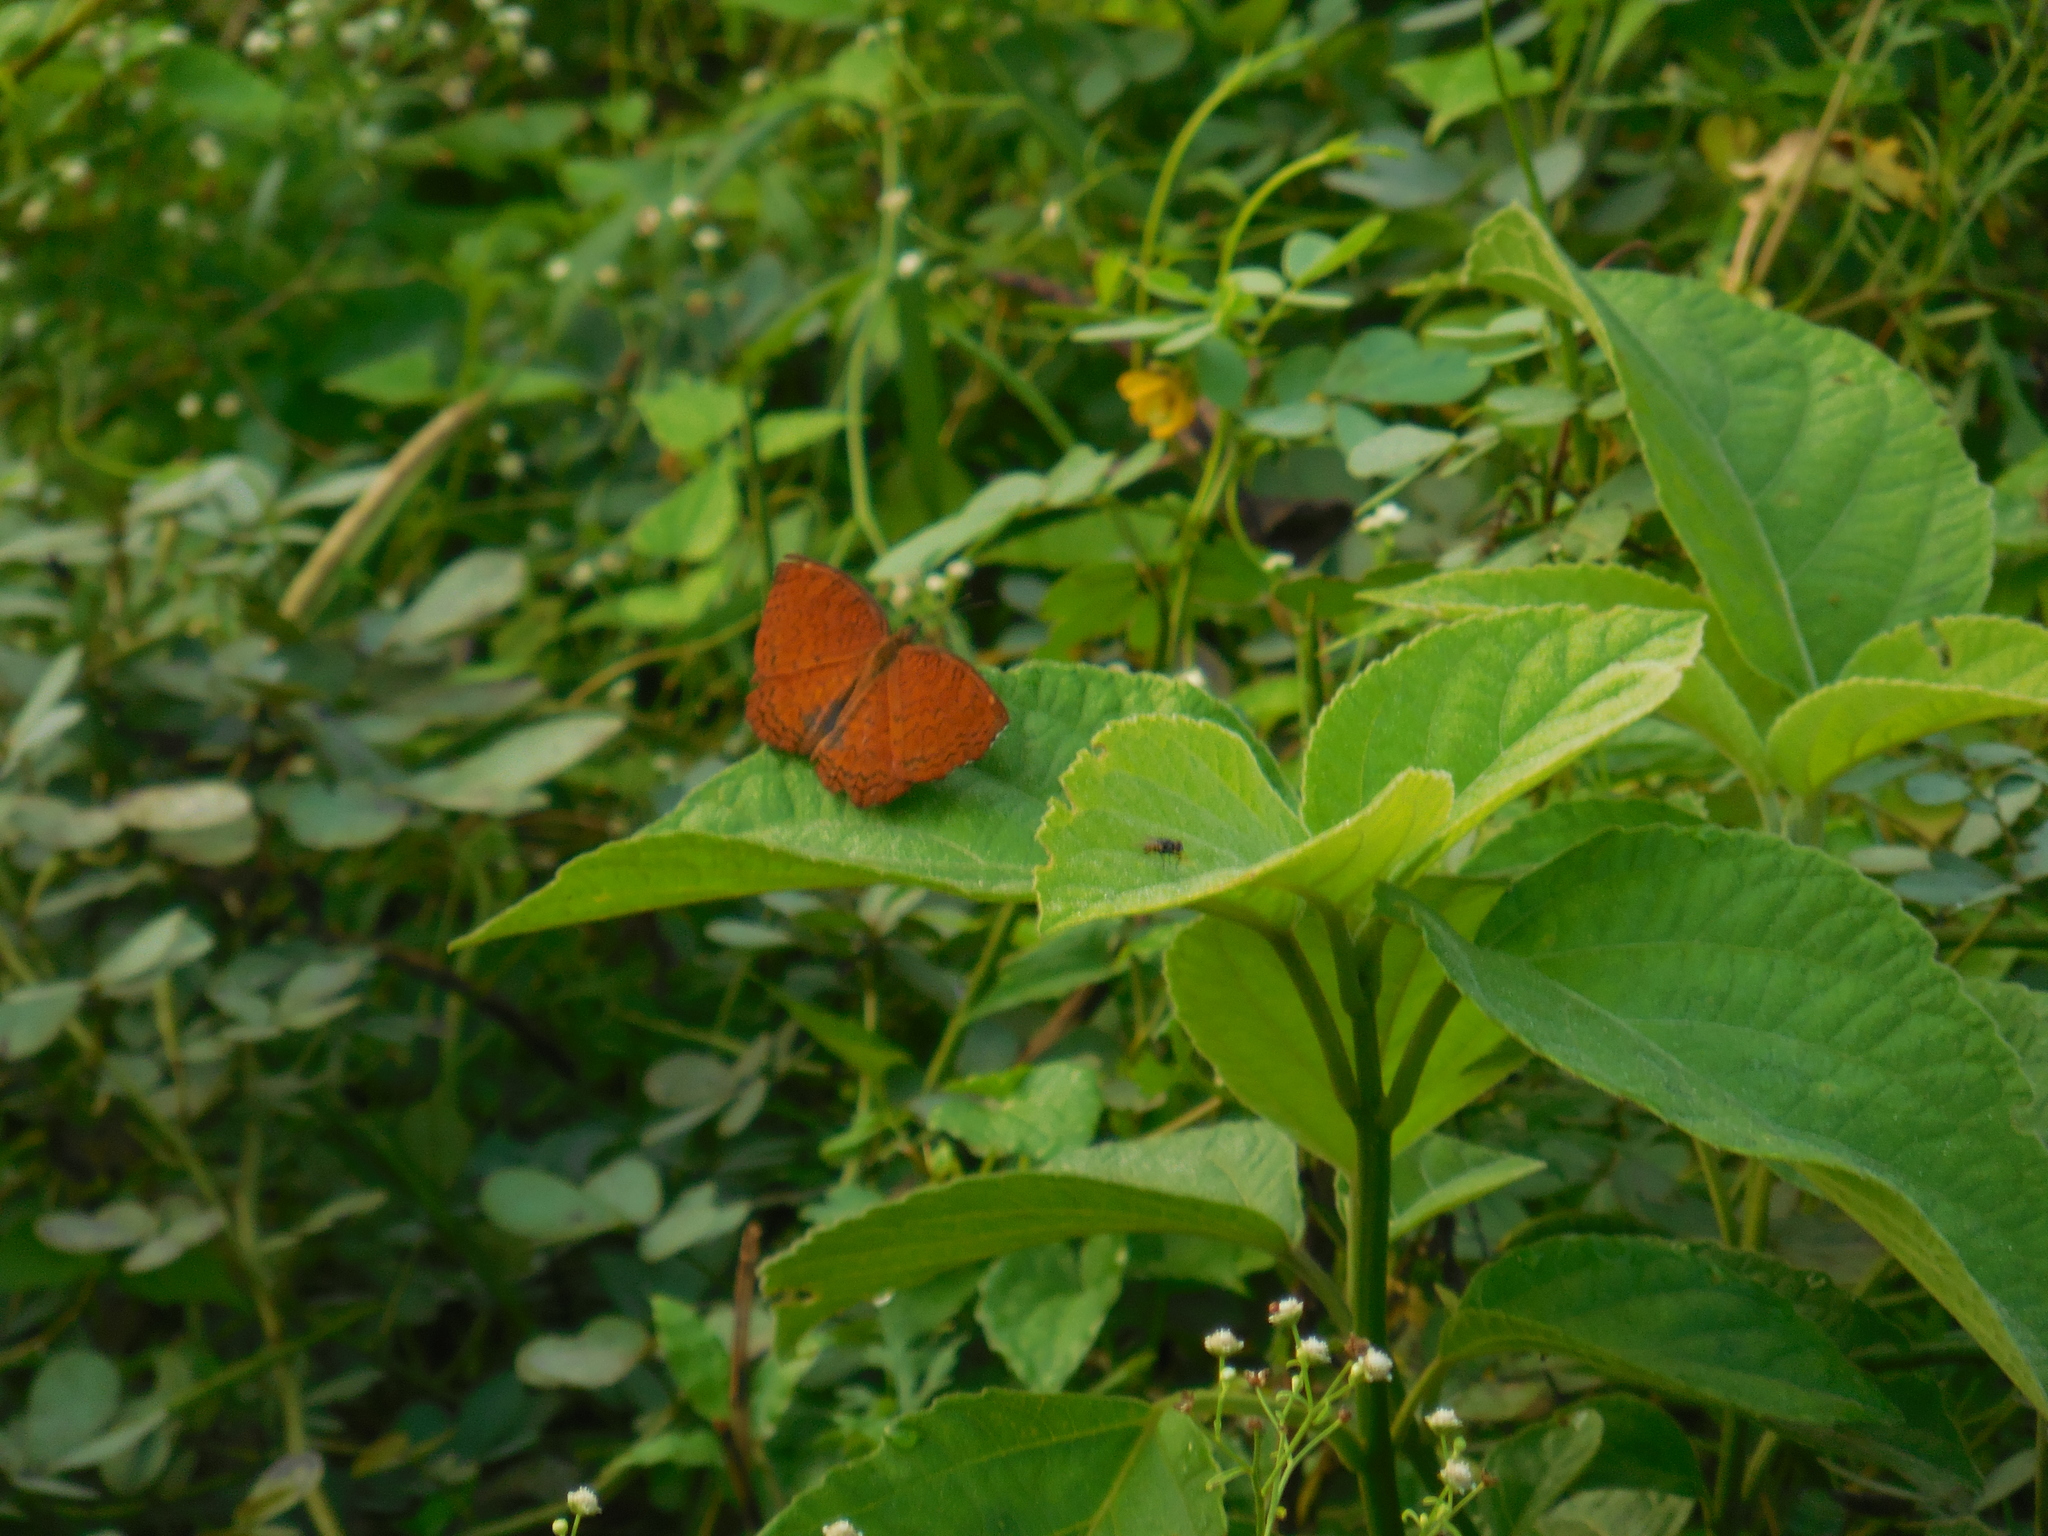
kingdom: Animalia
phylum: Arthropoda
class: Insecta
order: Lepidoptera
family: Nymphalidae
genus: Ariadne
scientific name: Ariadne ariadne
